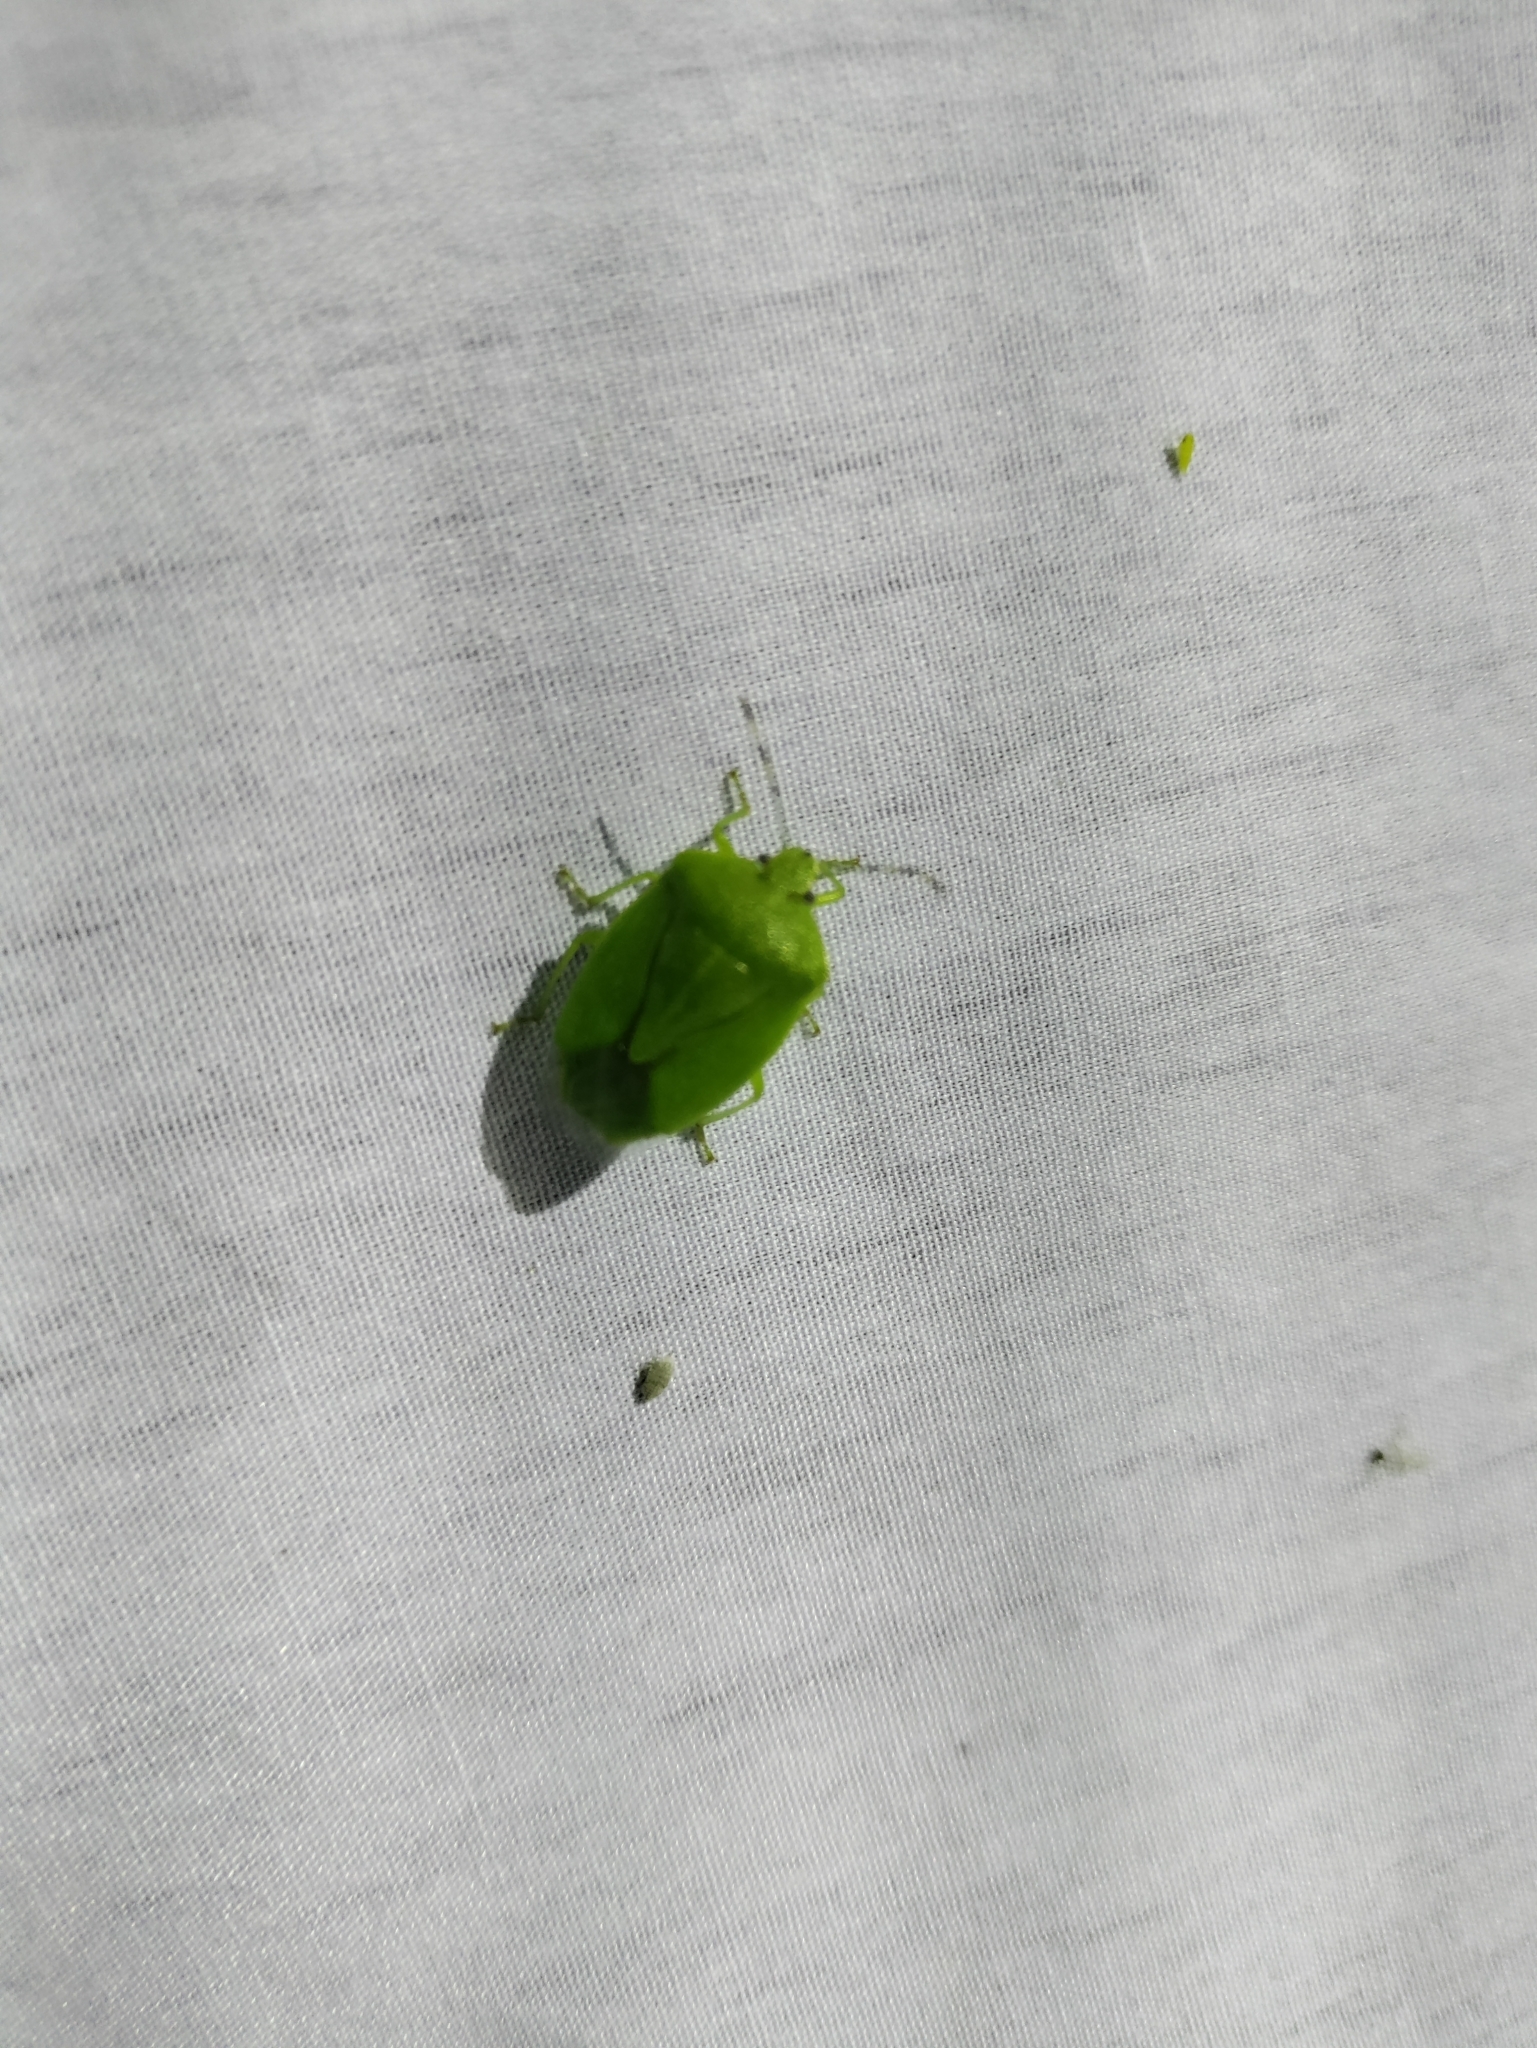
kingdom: Animalia
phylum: Arthropoda
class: Insecta
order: Hemiptera
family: Pentatomidae
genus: Chinavia
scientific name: Chinavia hilaris
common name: Green stink bug
